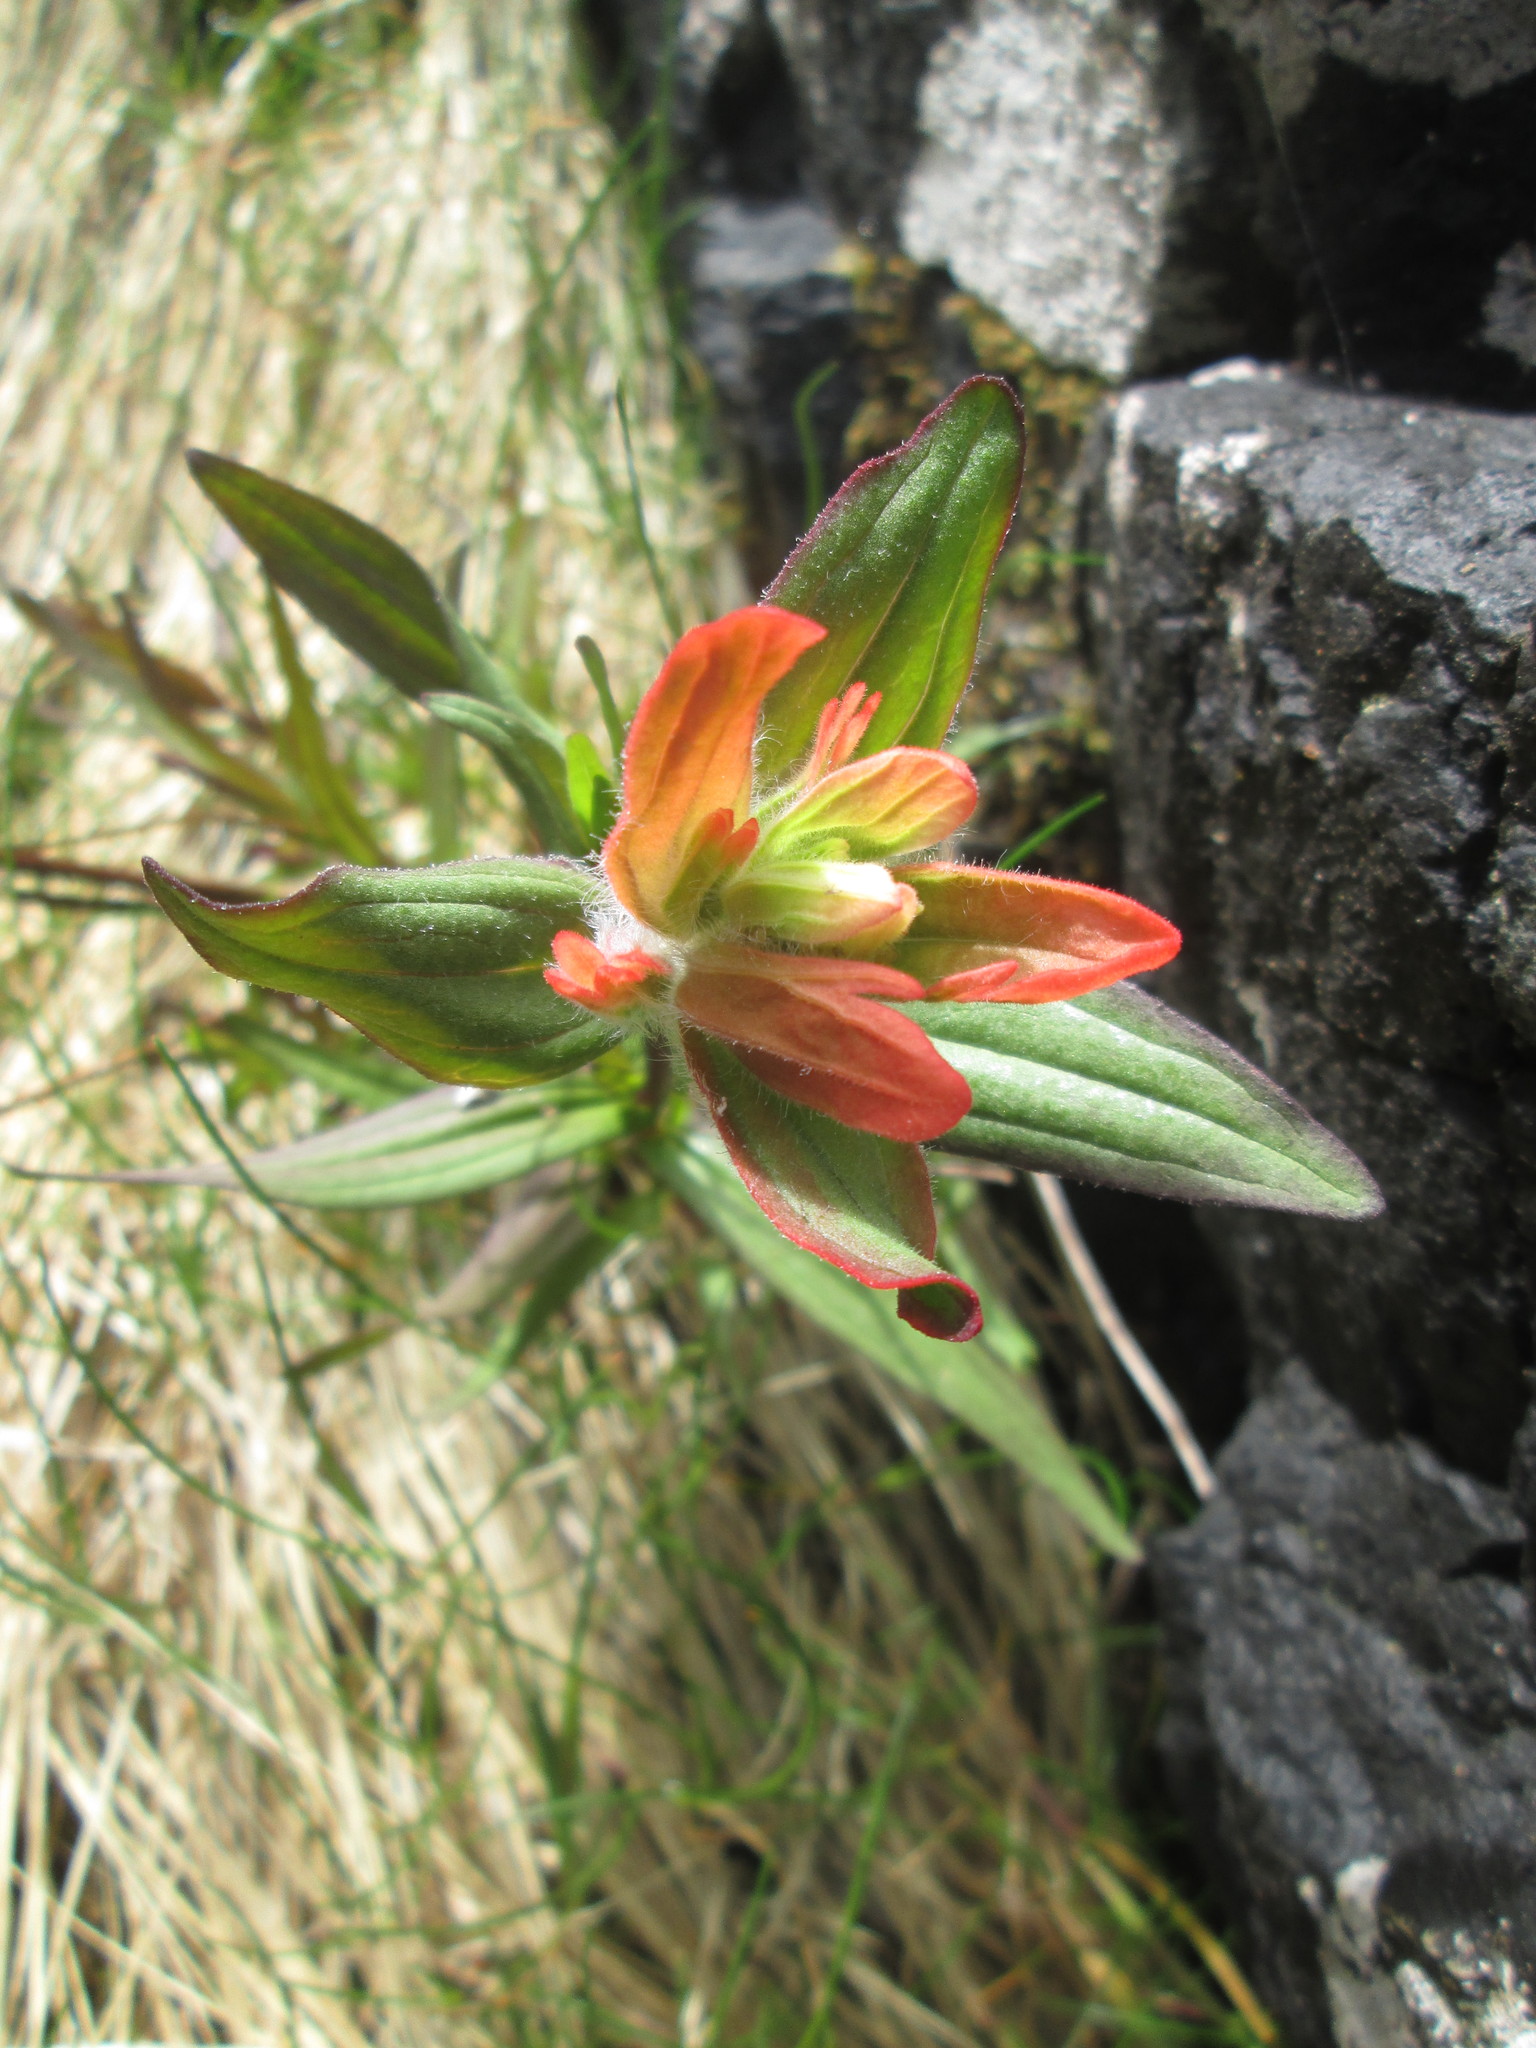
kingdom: Plantae
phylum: Tracheophyta
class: Magnoliopsida
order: Lamiales
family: Orobanchaceae
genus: Castilleja
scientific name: Castilleja miniata
